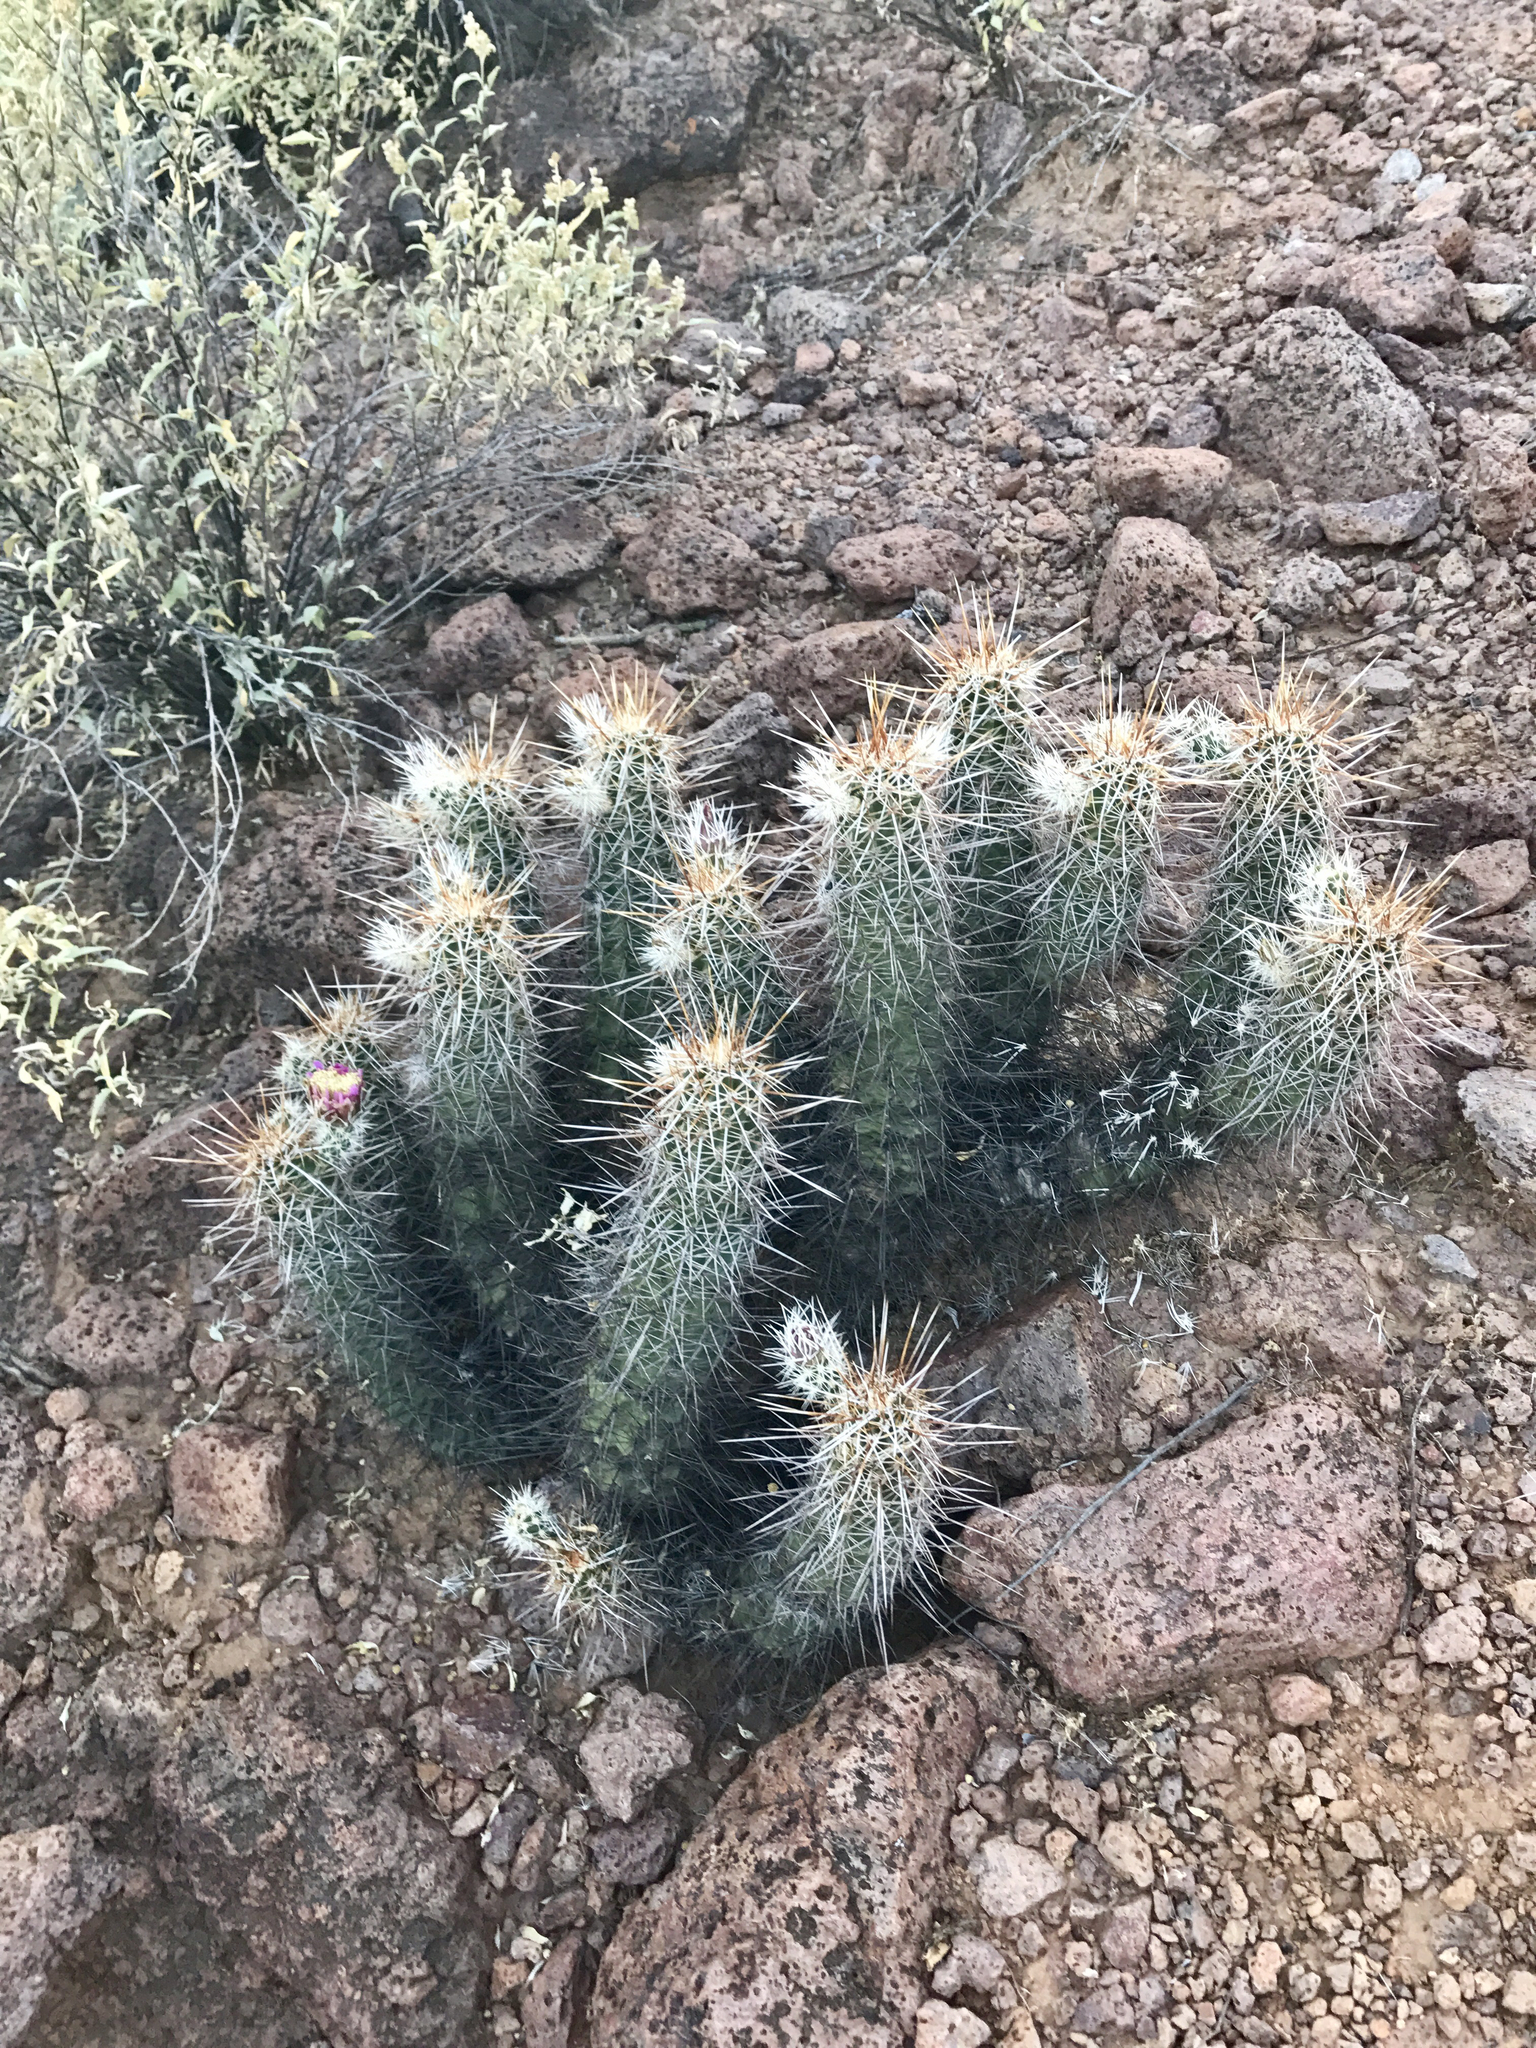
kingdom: Plantae
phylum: Tracheophyta
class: Magnoliopsida
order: Caryophyllales
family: Cactaceae
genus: Echinocereus
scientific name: Echinocereus fasciculatus
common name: Bundle hedgehog
